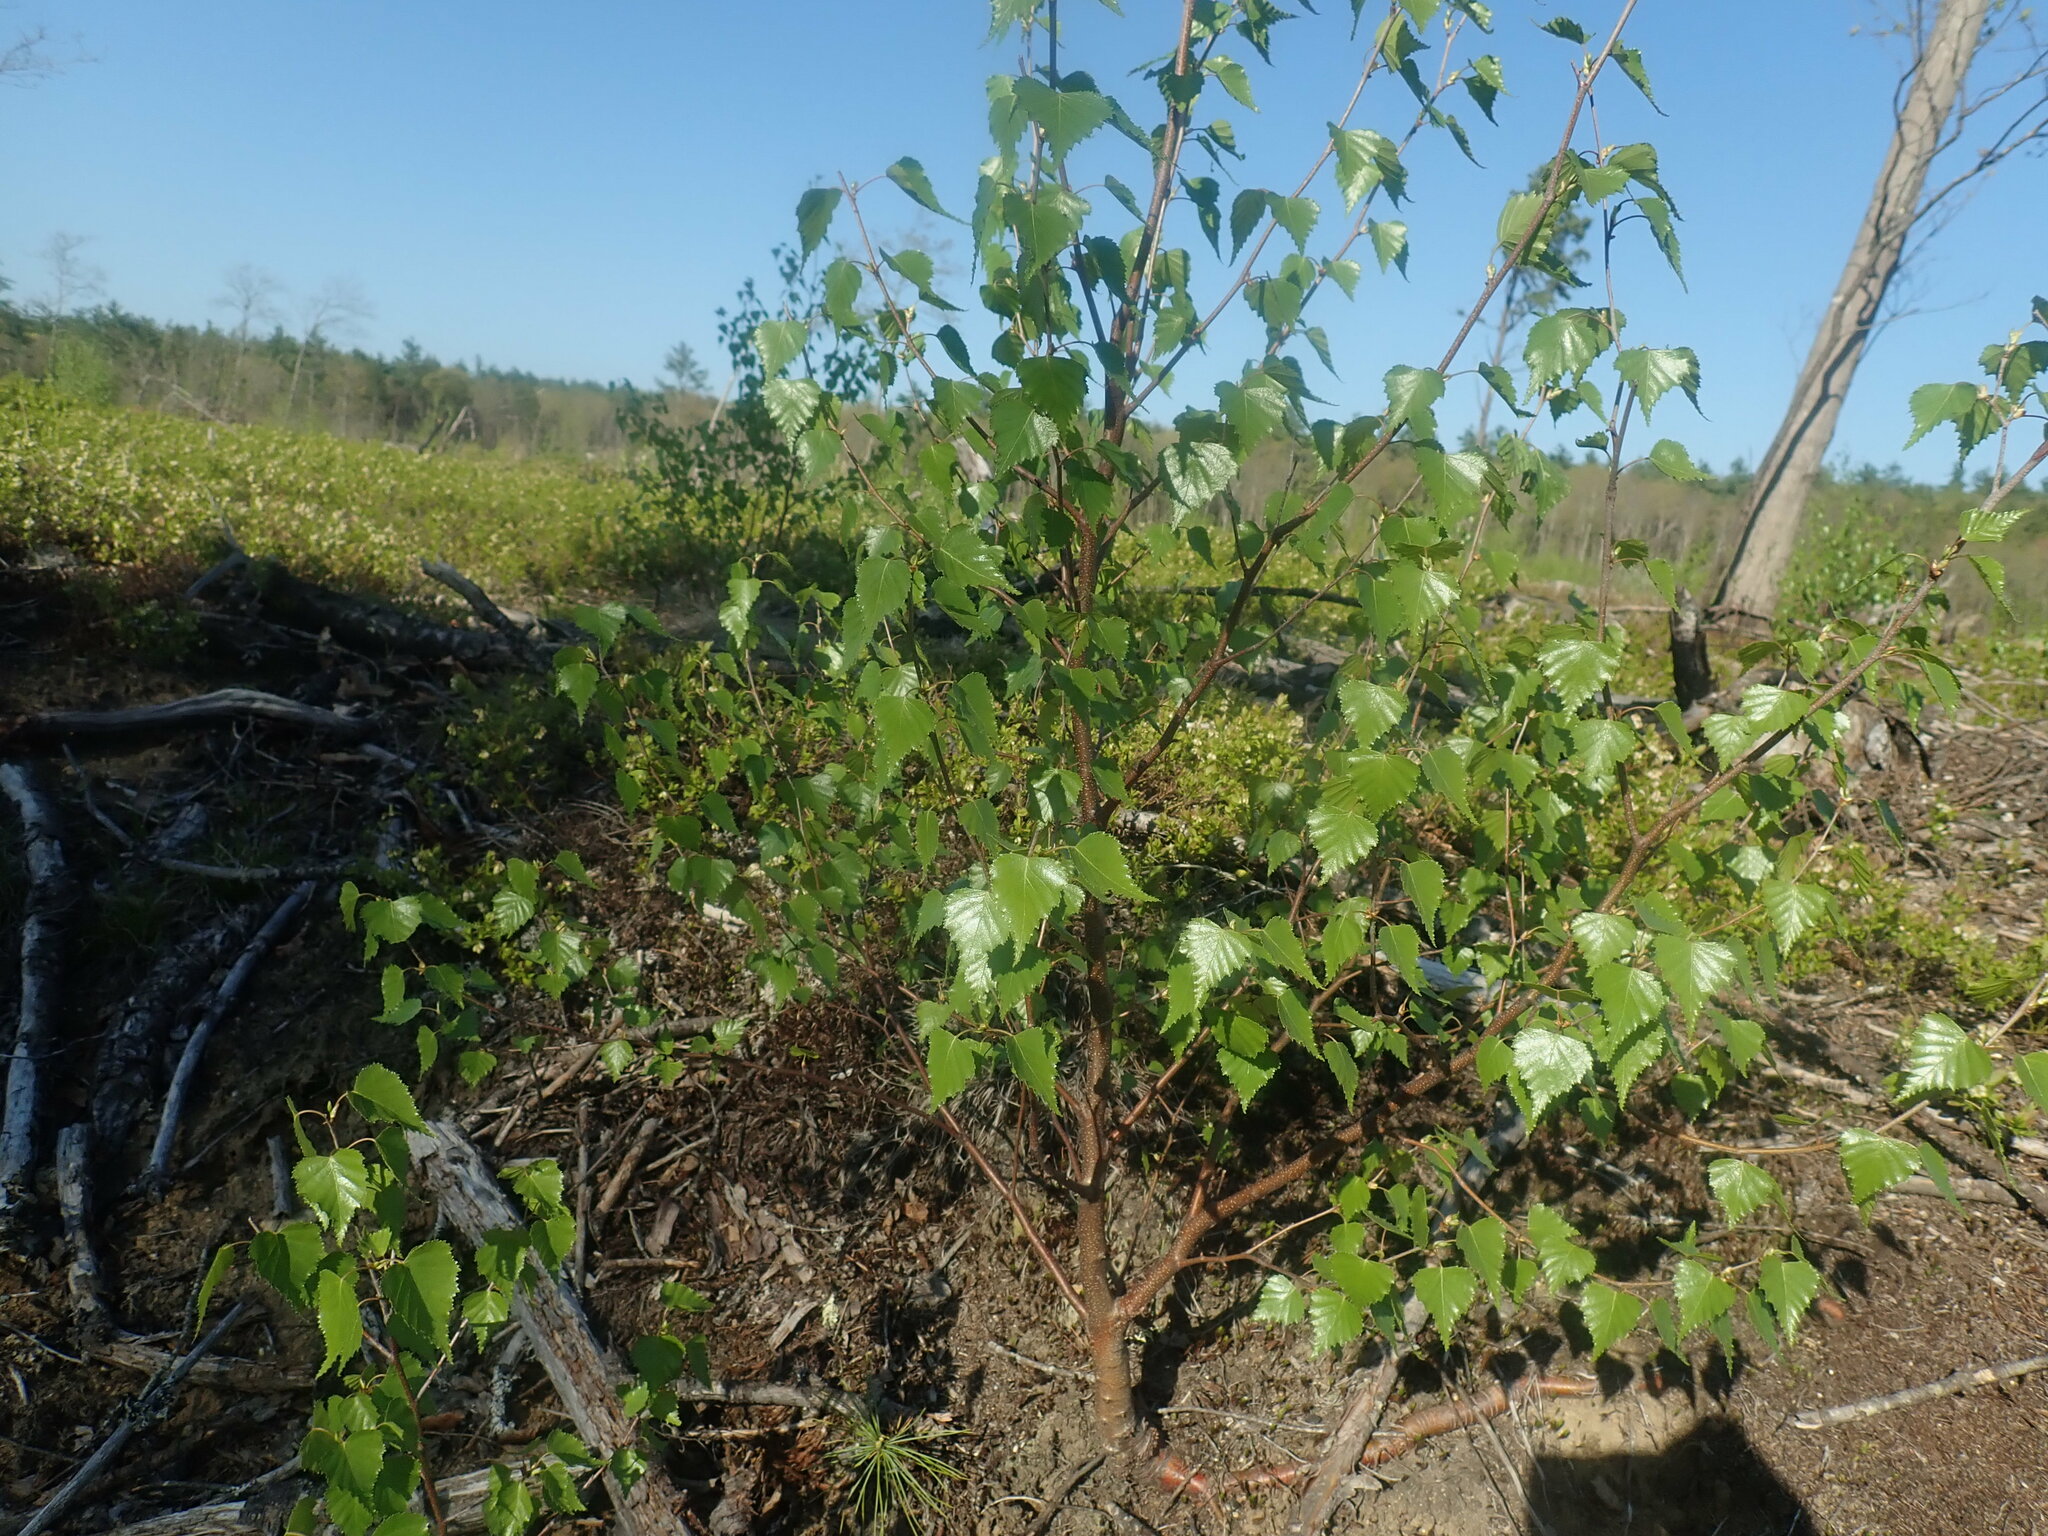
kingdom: Plantae
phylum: Tracheophyta
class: Magnoliopsida
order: Fagales
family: Betulaceae
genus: Betula
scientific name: Betula populifolia
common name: Fire birch
